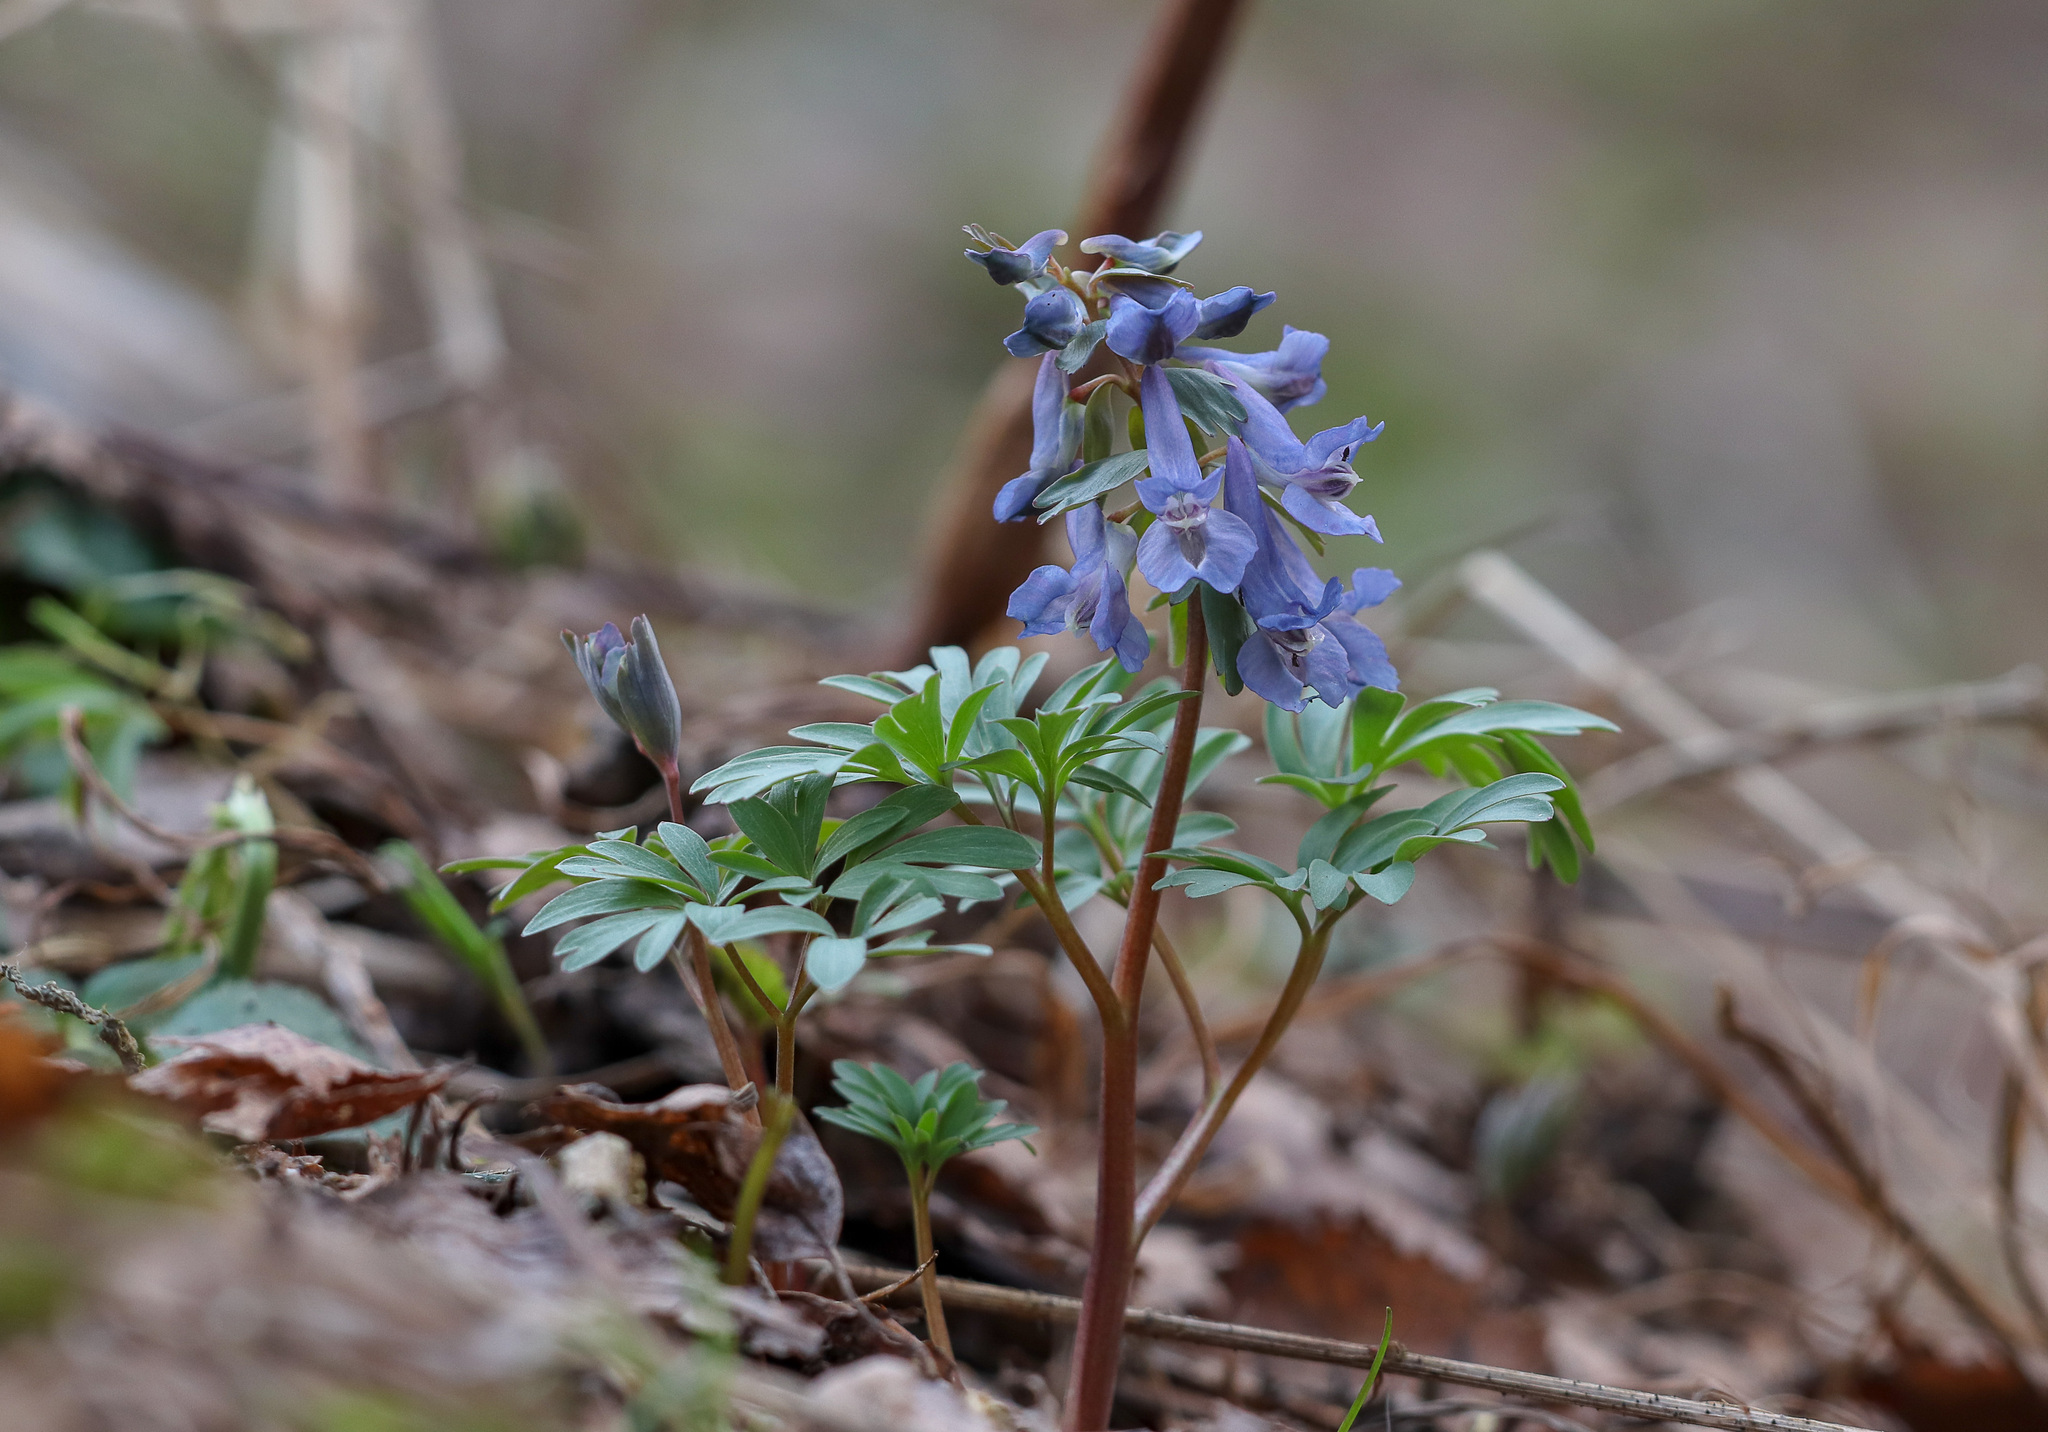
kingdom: Plantae
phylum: Tracheophyta
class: Magnoliopsida
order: Ranunculales
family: Papaveraceae
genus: Corydalis
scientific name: Corydalis solida
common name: Bird-in-a-bush
